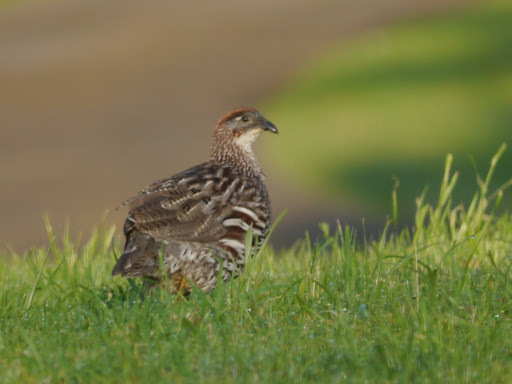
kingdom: Animalia
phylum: Chordata
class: Aves
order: Galliformes
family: Phasianidae
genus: Pternistis
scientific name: Pternistis erckelii
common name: Erckel's francolin
